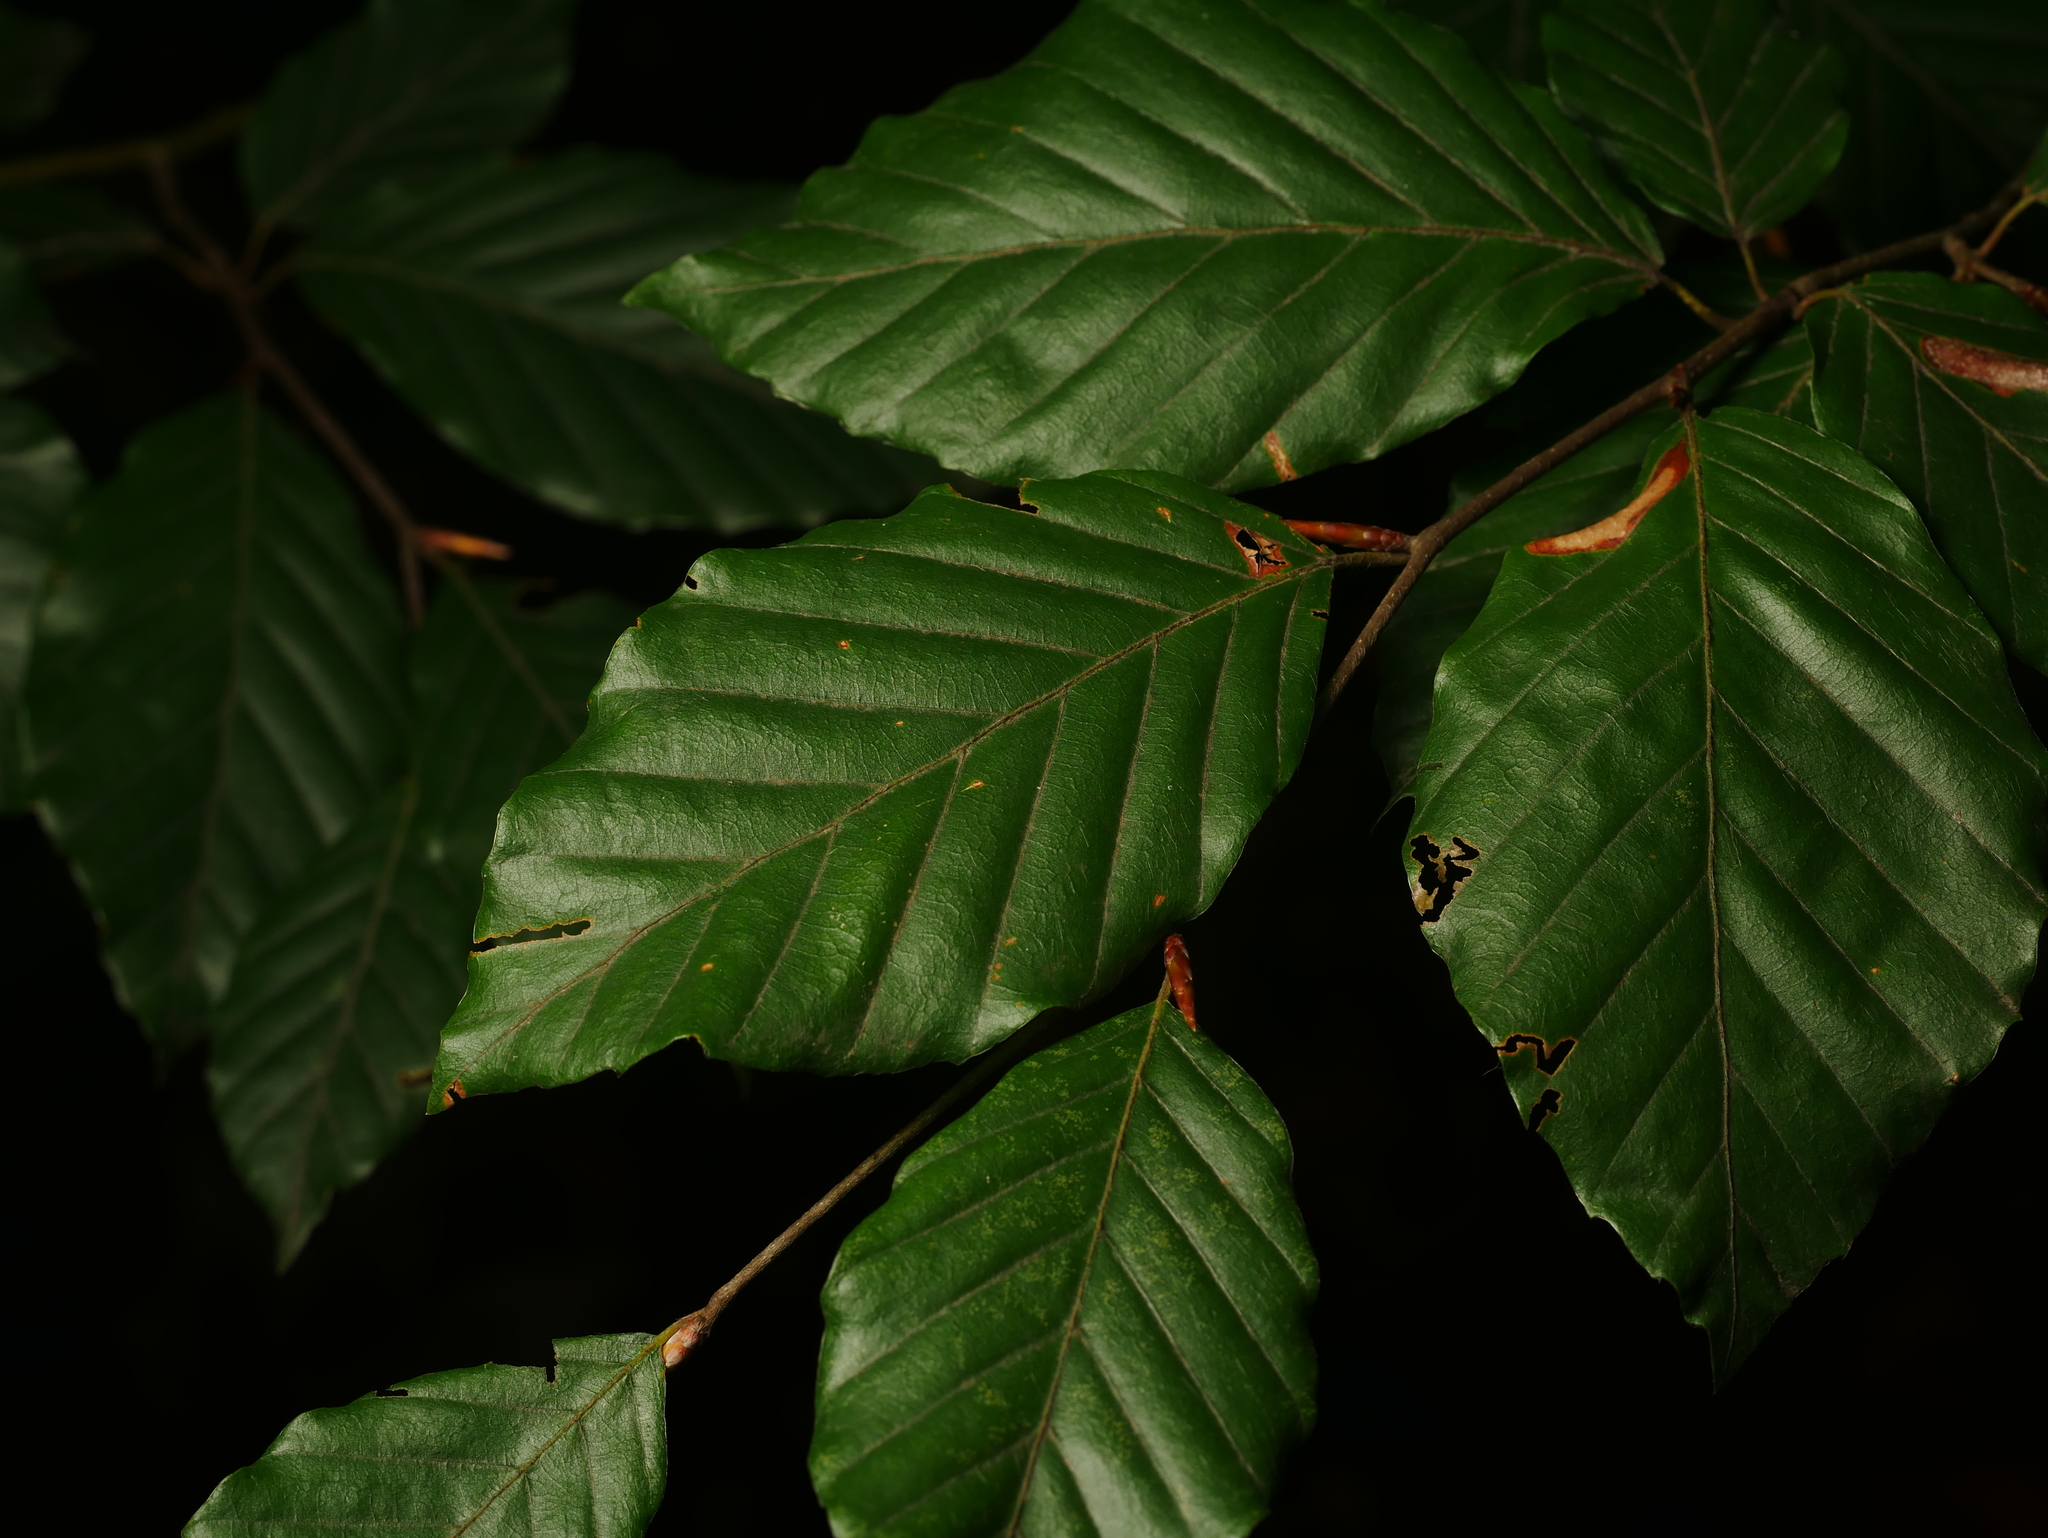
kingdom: Plantae
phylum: Tracheophyta
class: Magnoliopsida
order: Fagales
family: Fagaceae
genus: Fagus
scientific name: Fagus sylvatica
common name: Beech
